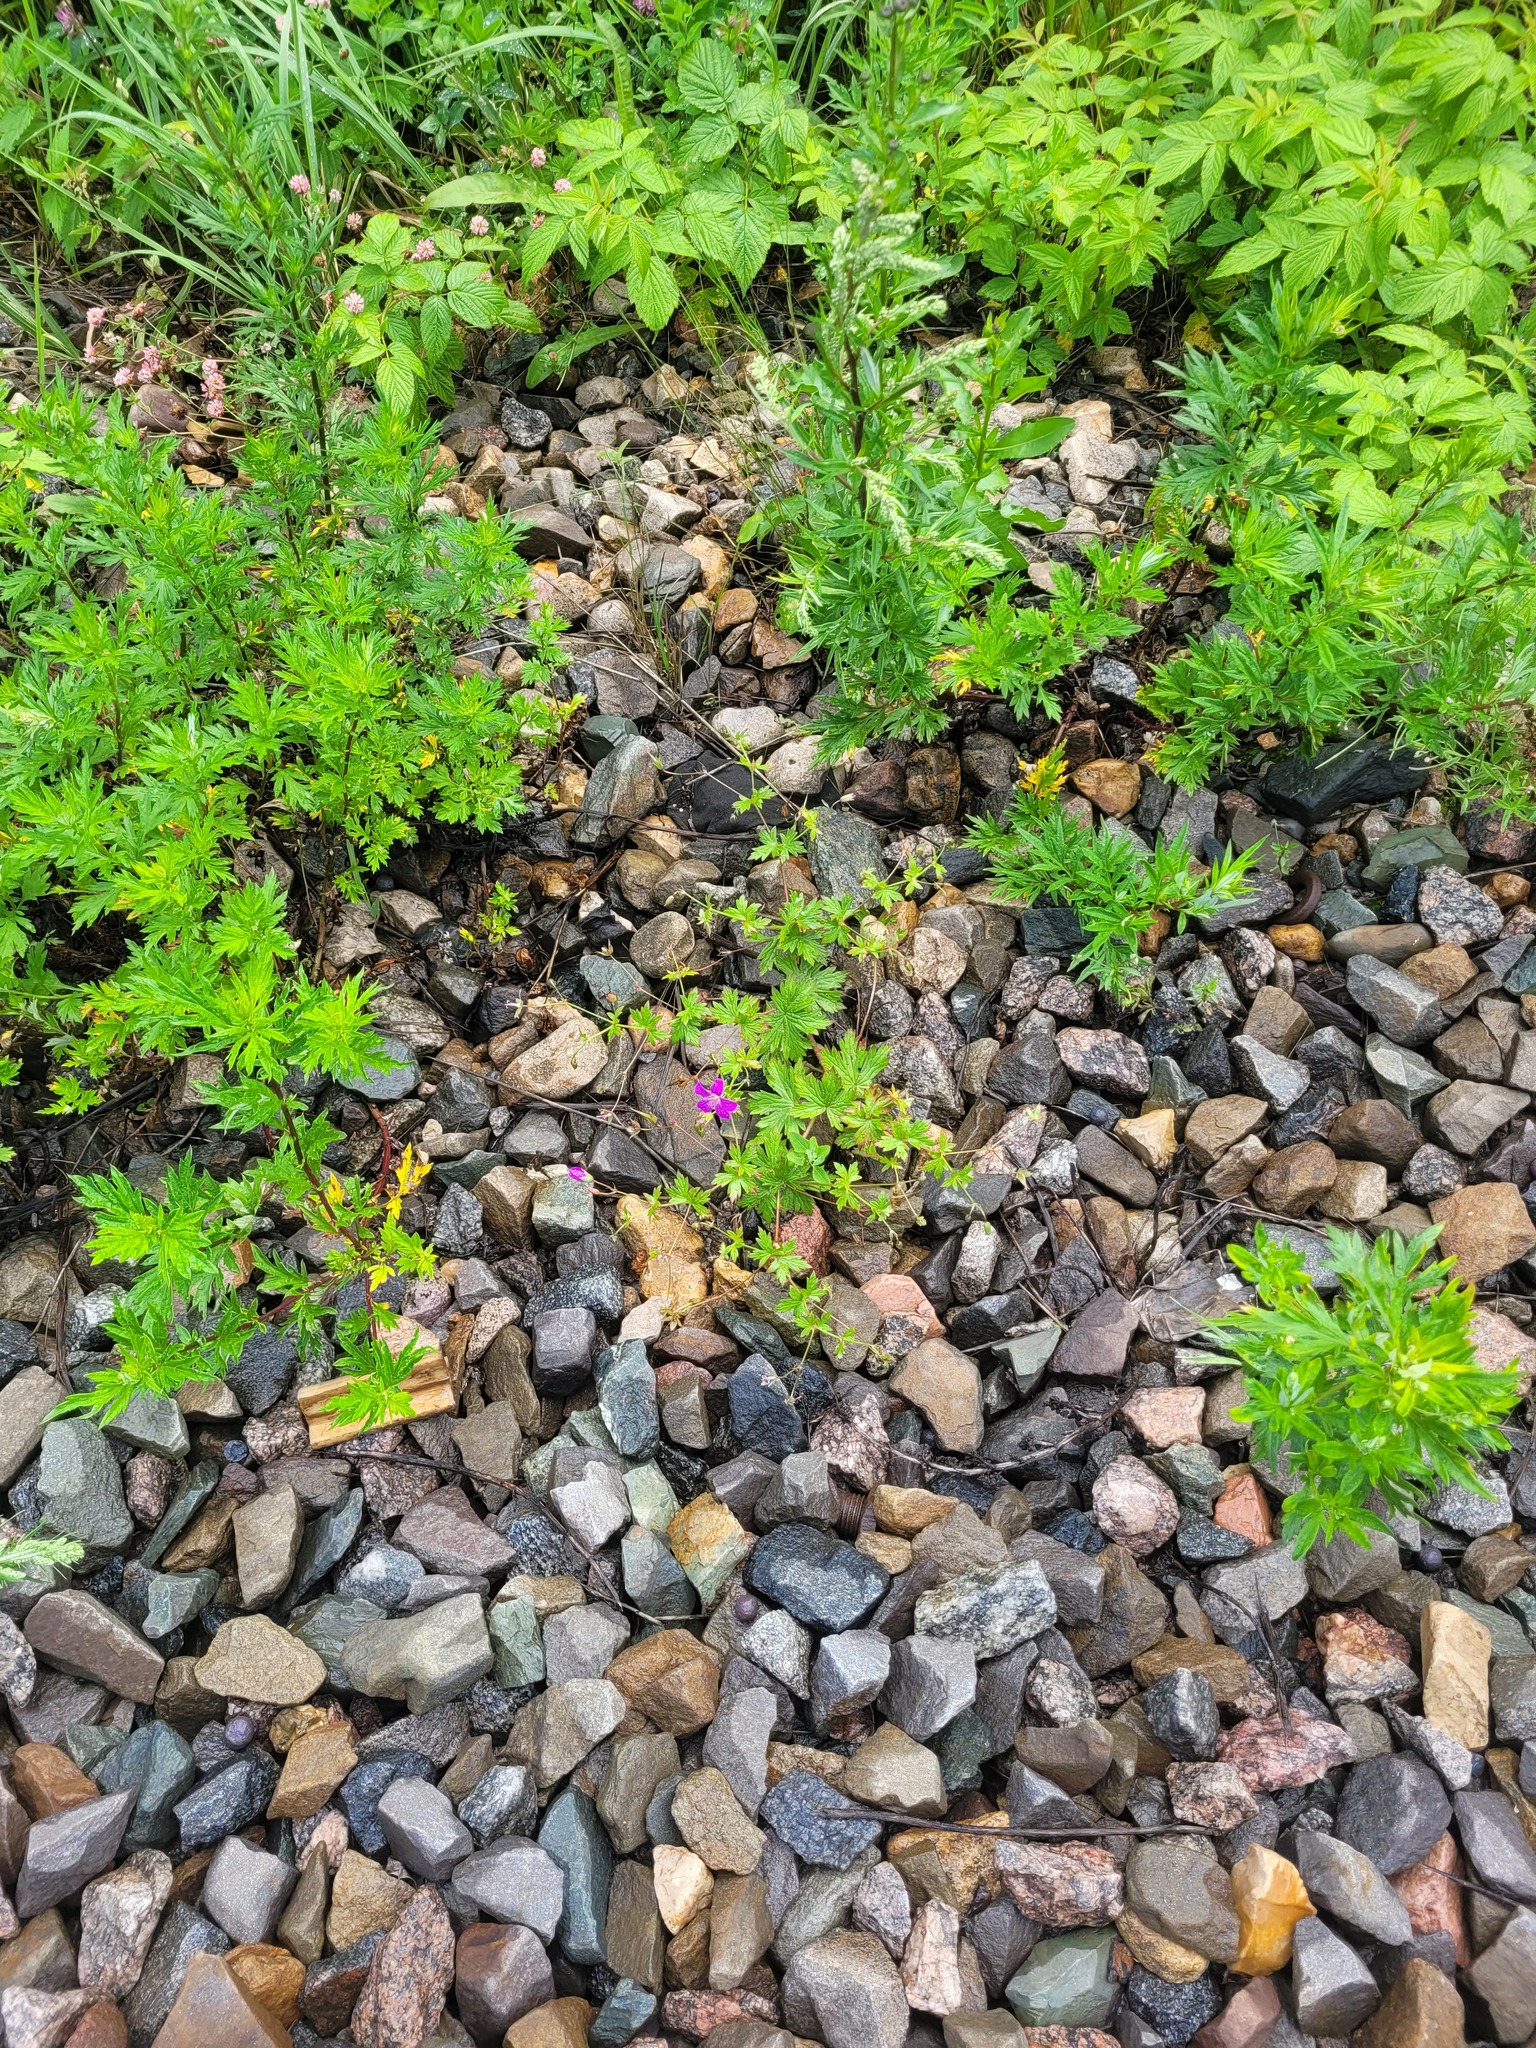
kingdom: Plantae
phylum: Tracheophyta
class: Magnoliopsida
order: Geraniales
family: Geraniaceae
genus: Geranium
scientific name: Geranium palustre
